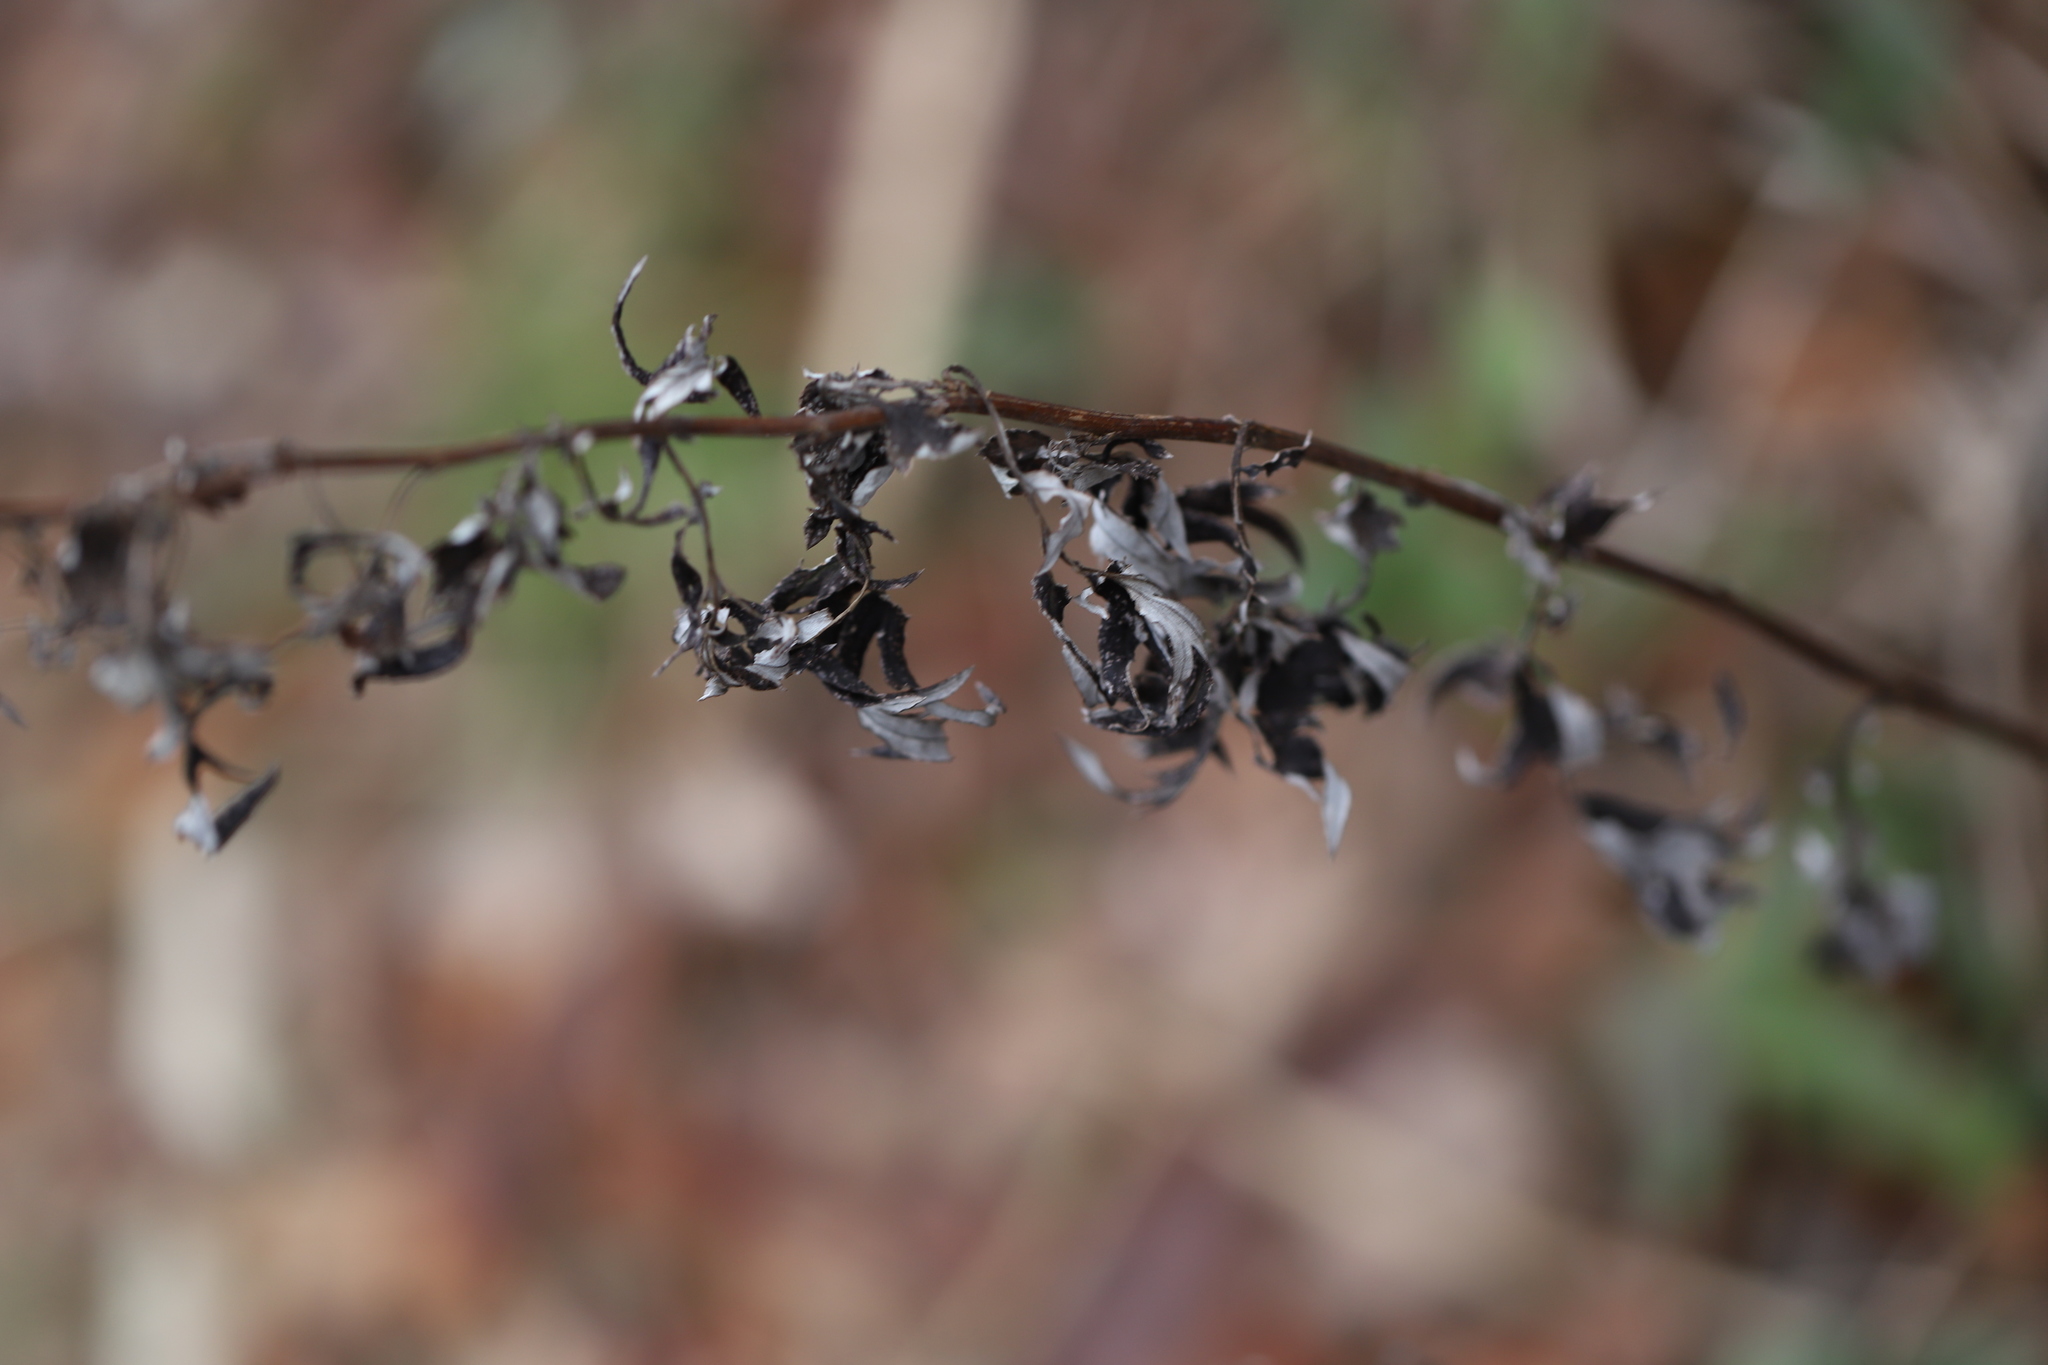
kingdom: Plantae
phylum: Tracheophyta
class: Magnoliopsida
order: Asterales
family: Asteraceae
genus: Artemisia
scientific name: Artemisia vulgaris
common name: Mugwort
